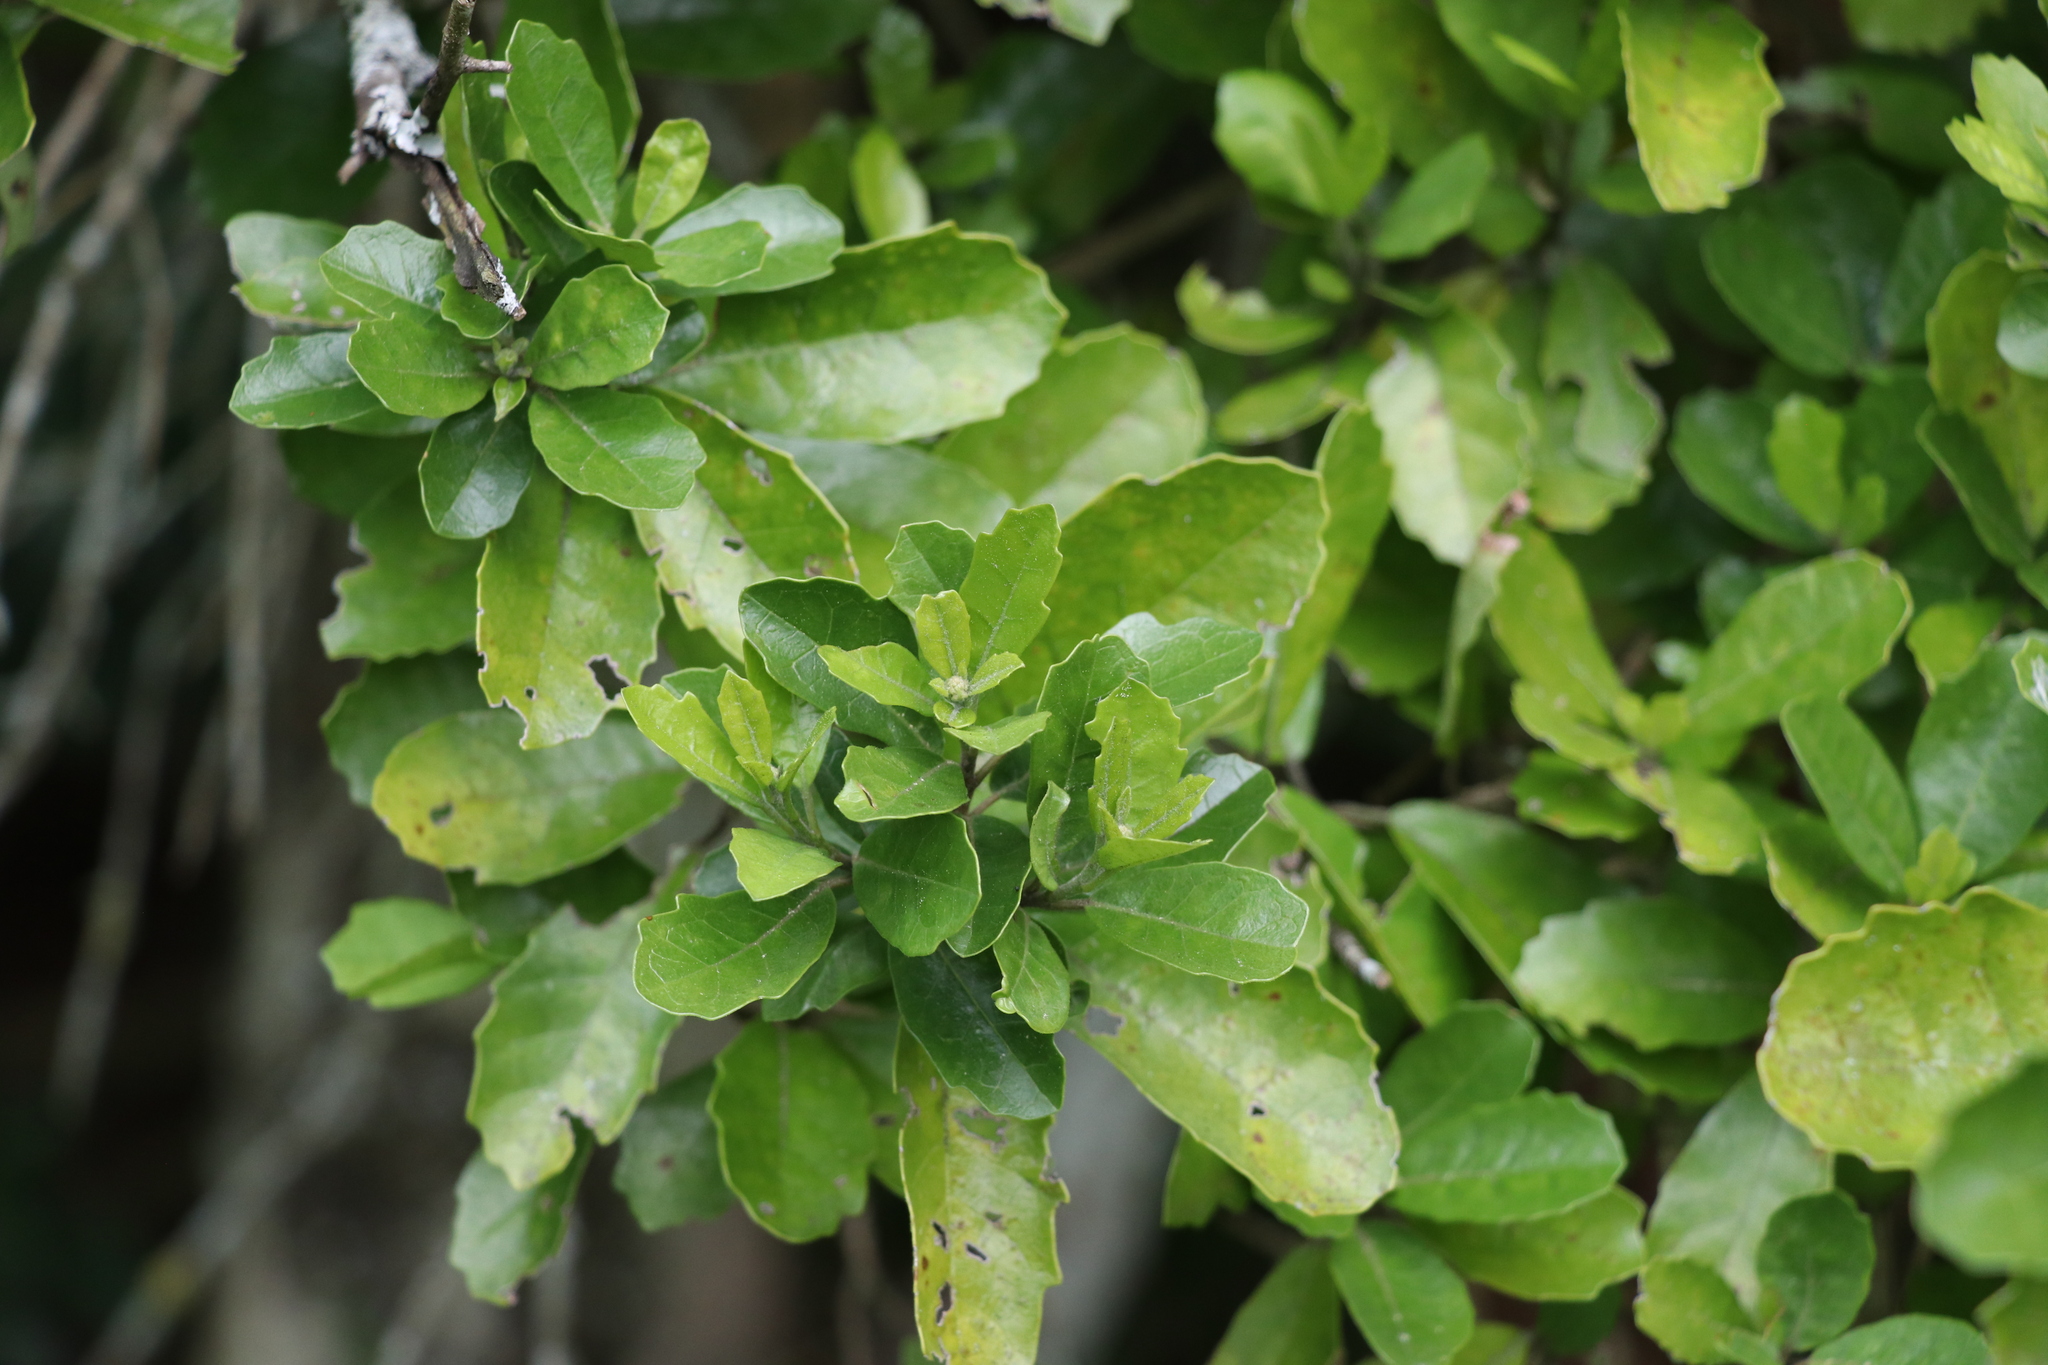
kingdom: Plantae
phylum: Tracheophyta
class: Magnoliopsida
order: Apiales
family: Pennantiaceae
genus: Pennantia
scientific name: Pennantia corymbosa
